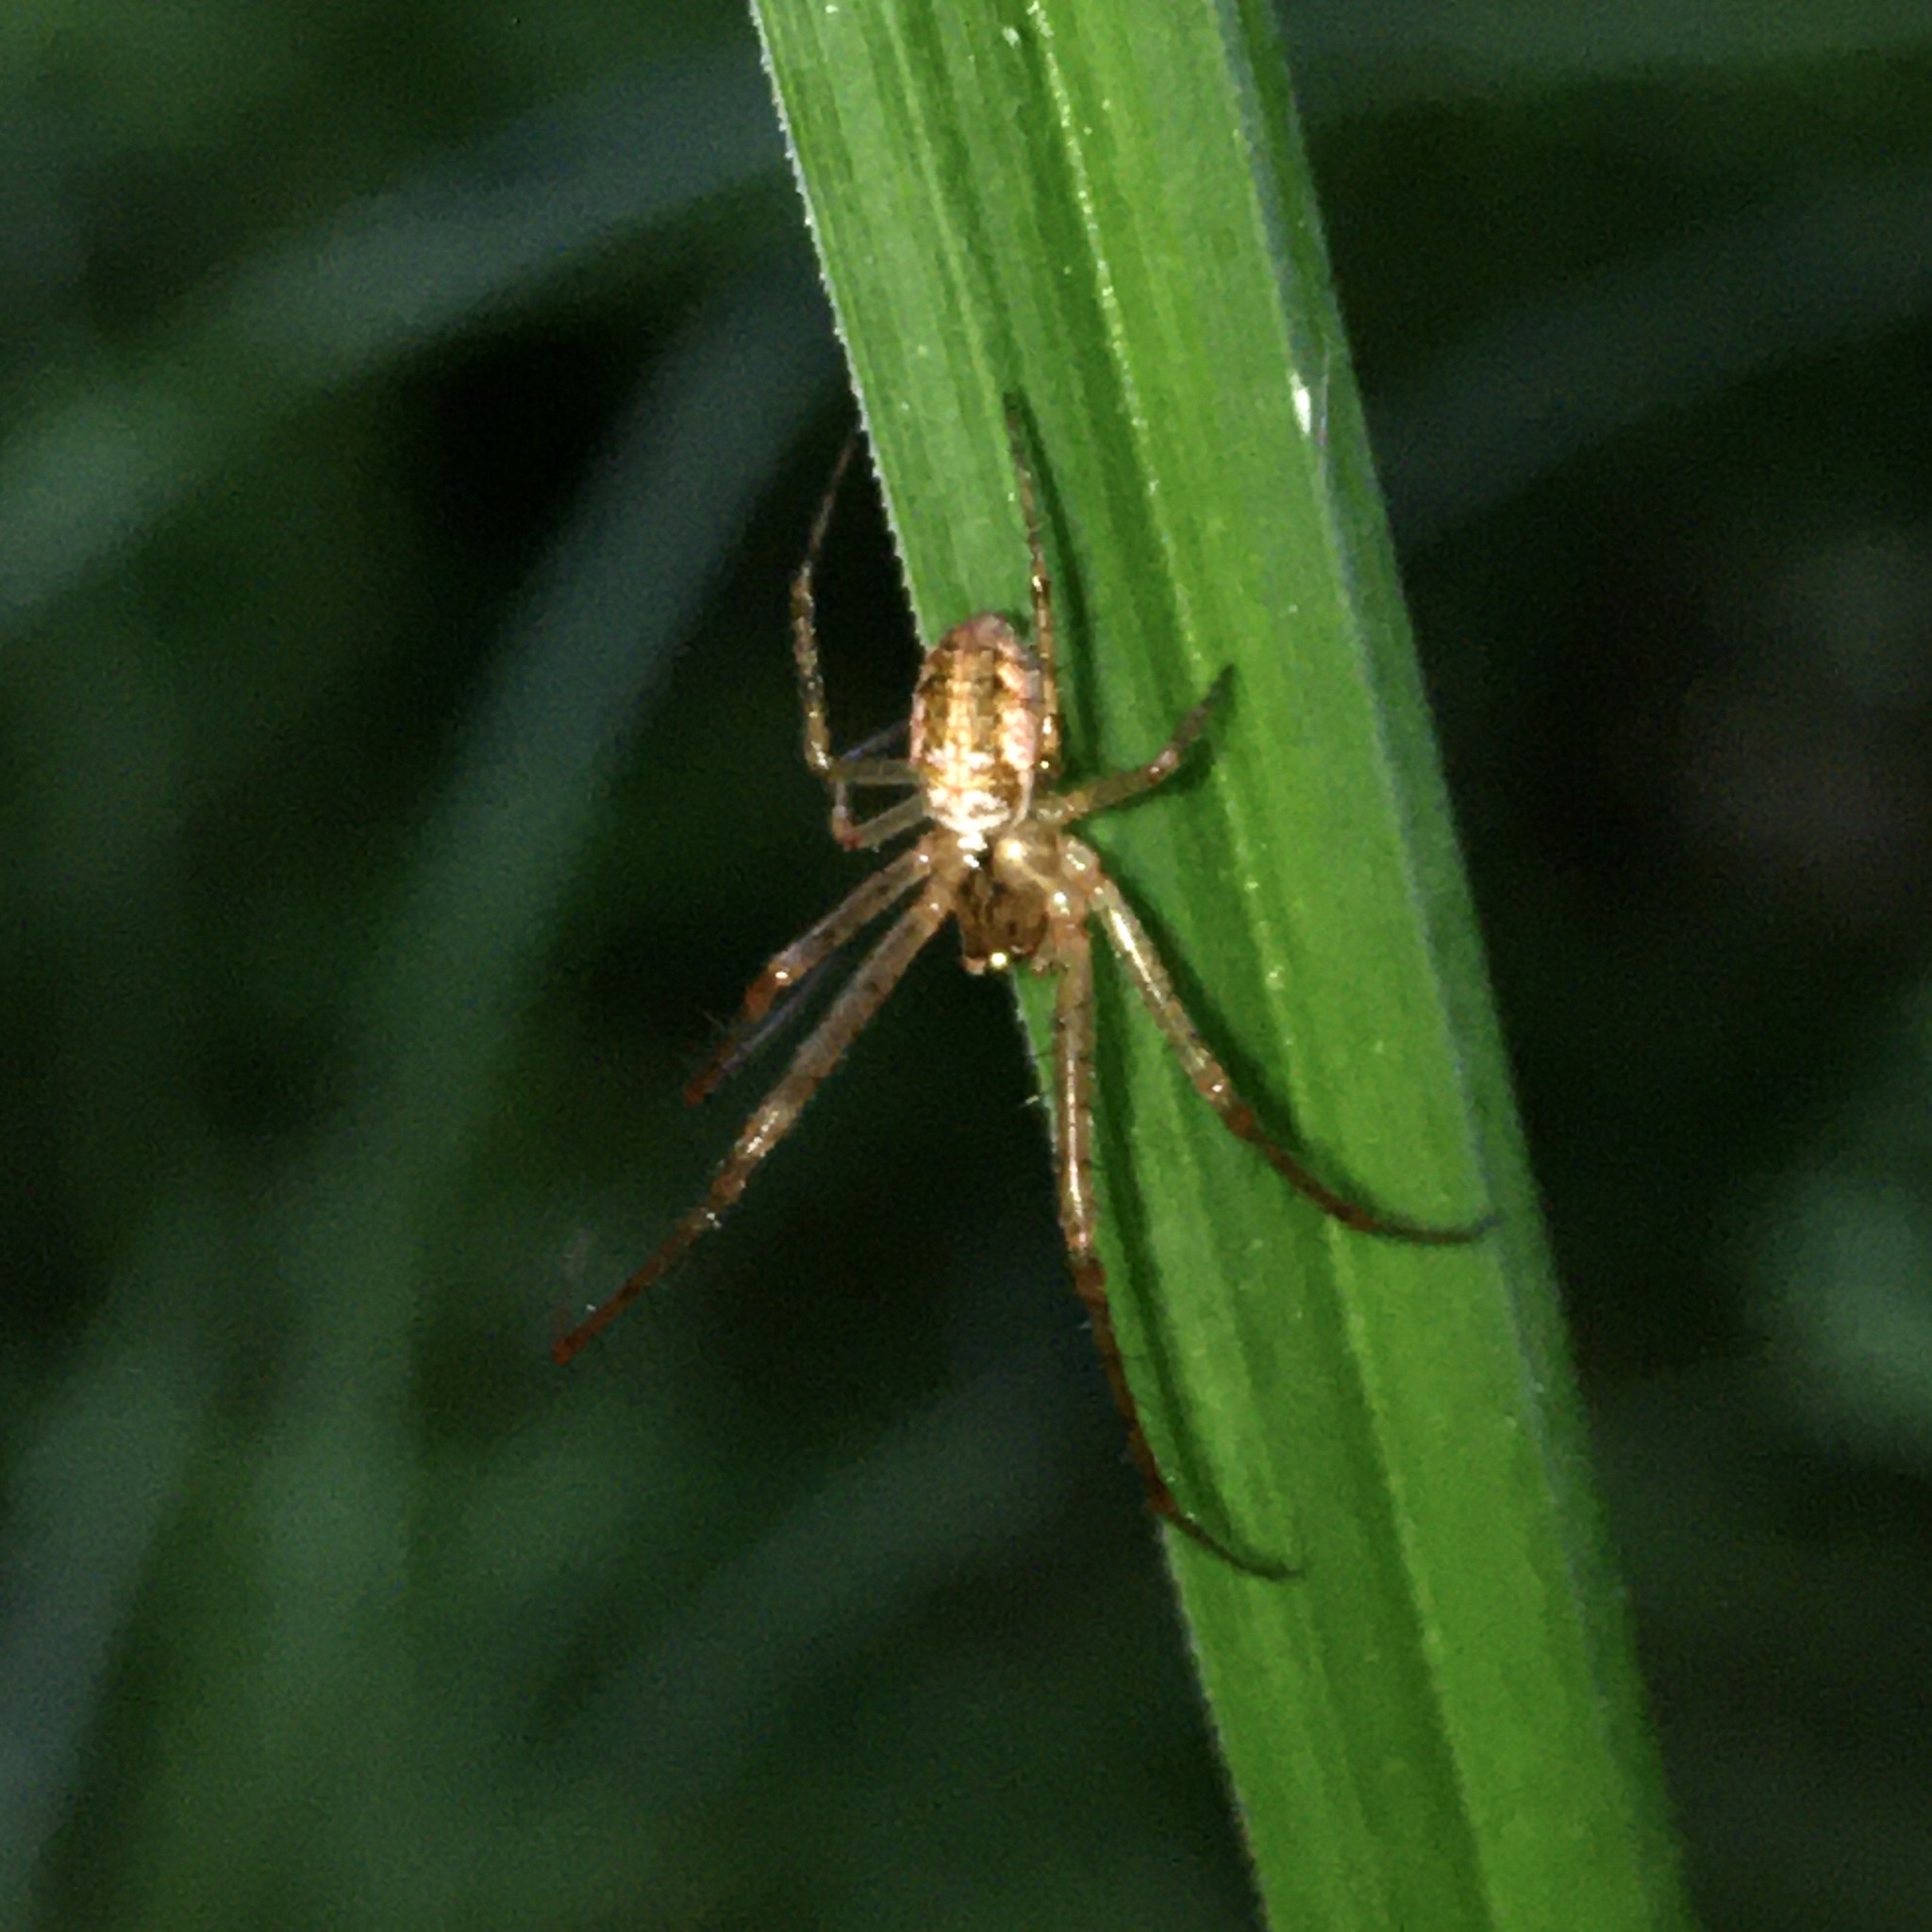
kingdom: Animalia
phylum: Arthropoda
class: Arachnida
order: Araneae
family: Tetragnathidae
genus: Metellina
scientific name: Metellina
